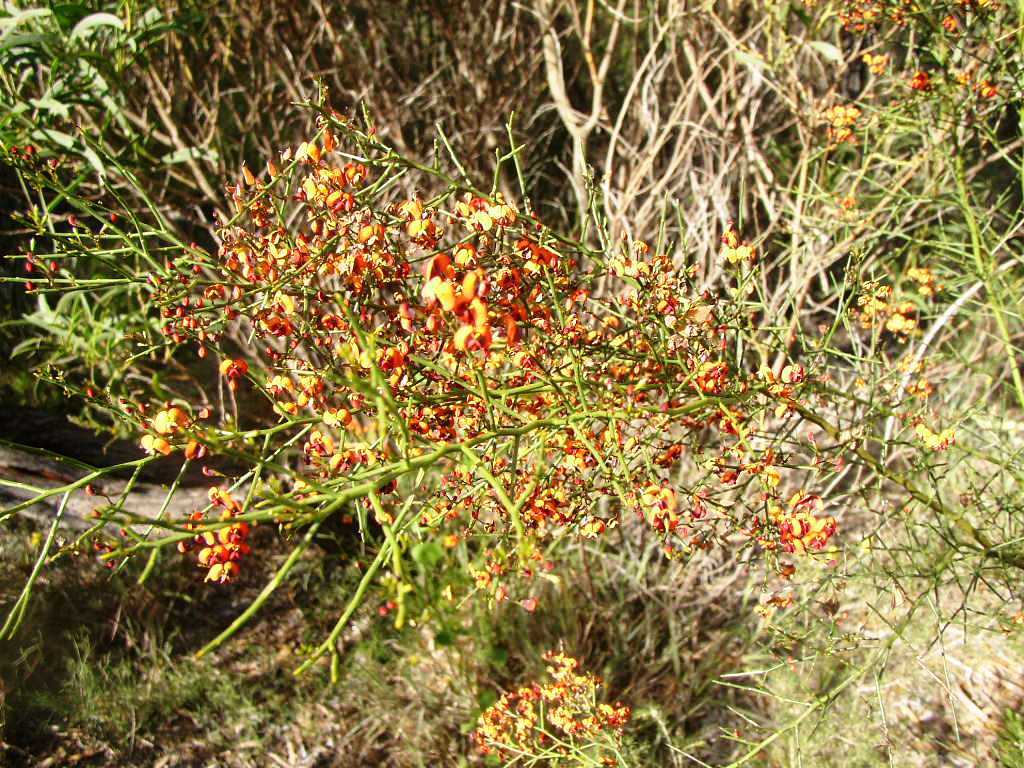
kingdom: Plantae
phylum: Tracheophyta
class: Magnoliopsida
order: Fabales
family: Fabaceae
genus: Daviesia
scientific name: Daviesia divaricata
